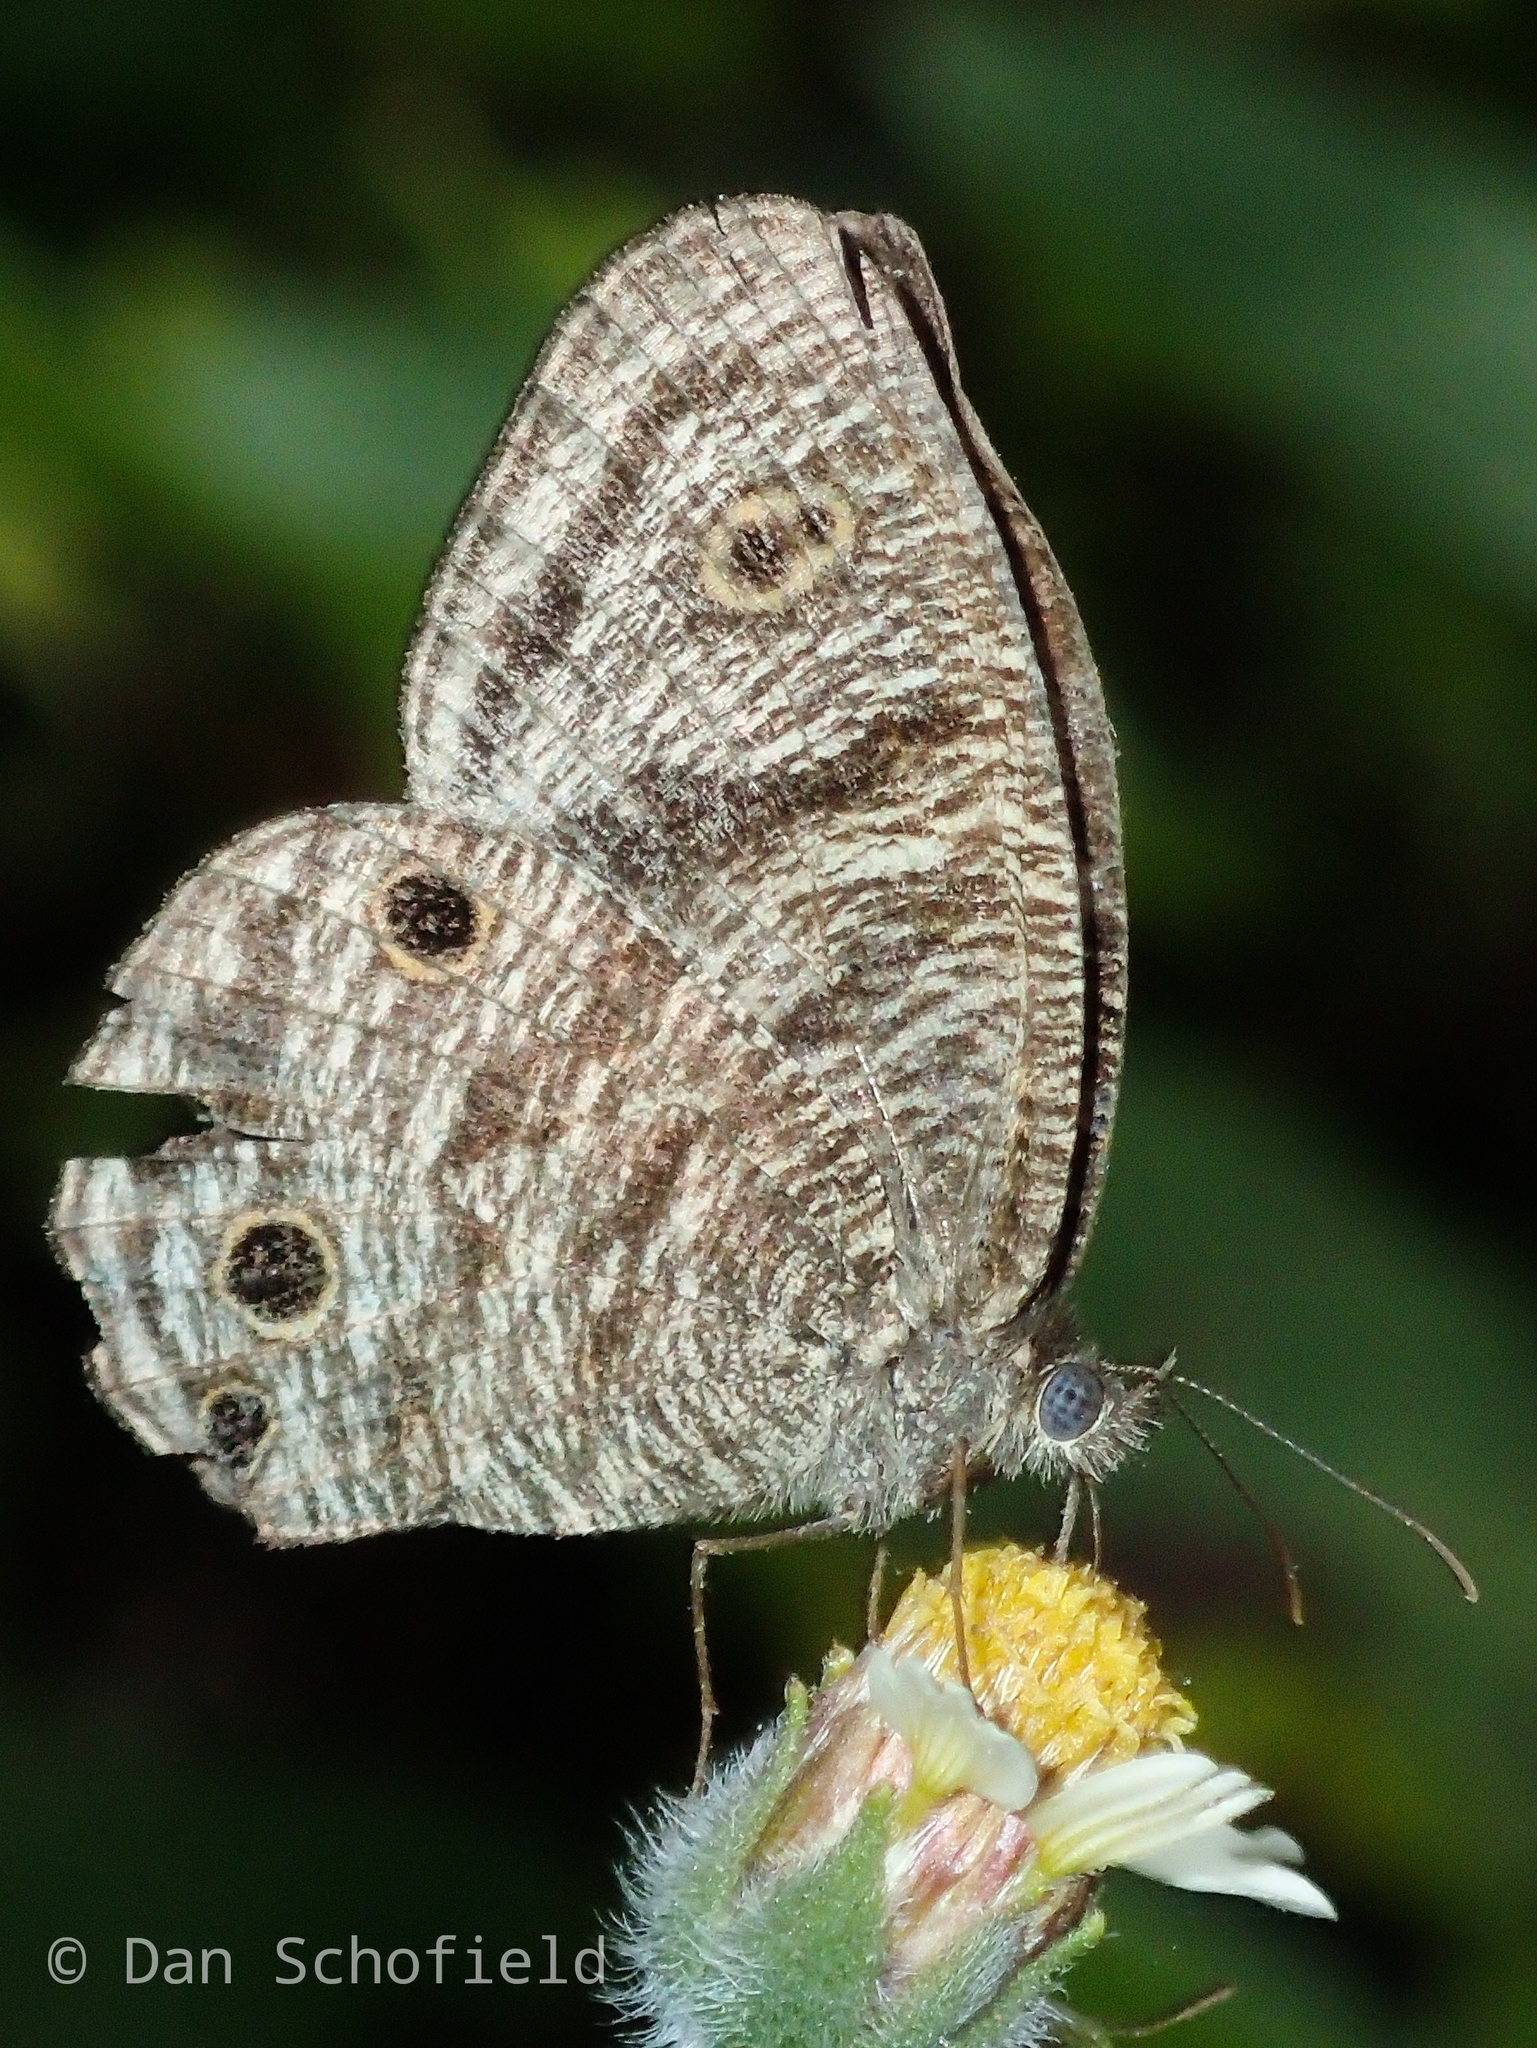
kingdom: Animalia
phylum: Arthropoda
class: Insecta
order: Lepidoptera
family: Nymphalidae
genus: Ypthima
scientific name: Ypthima pandocus
